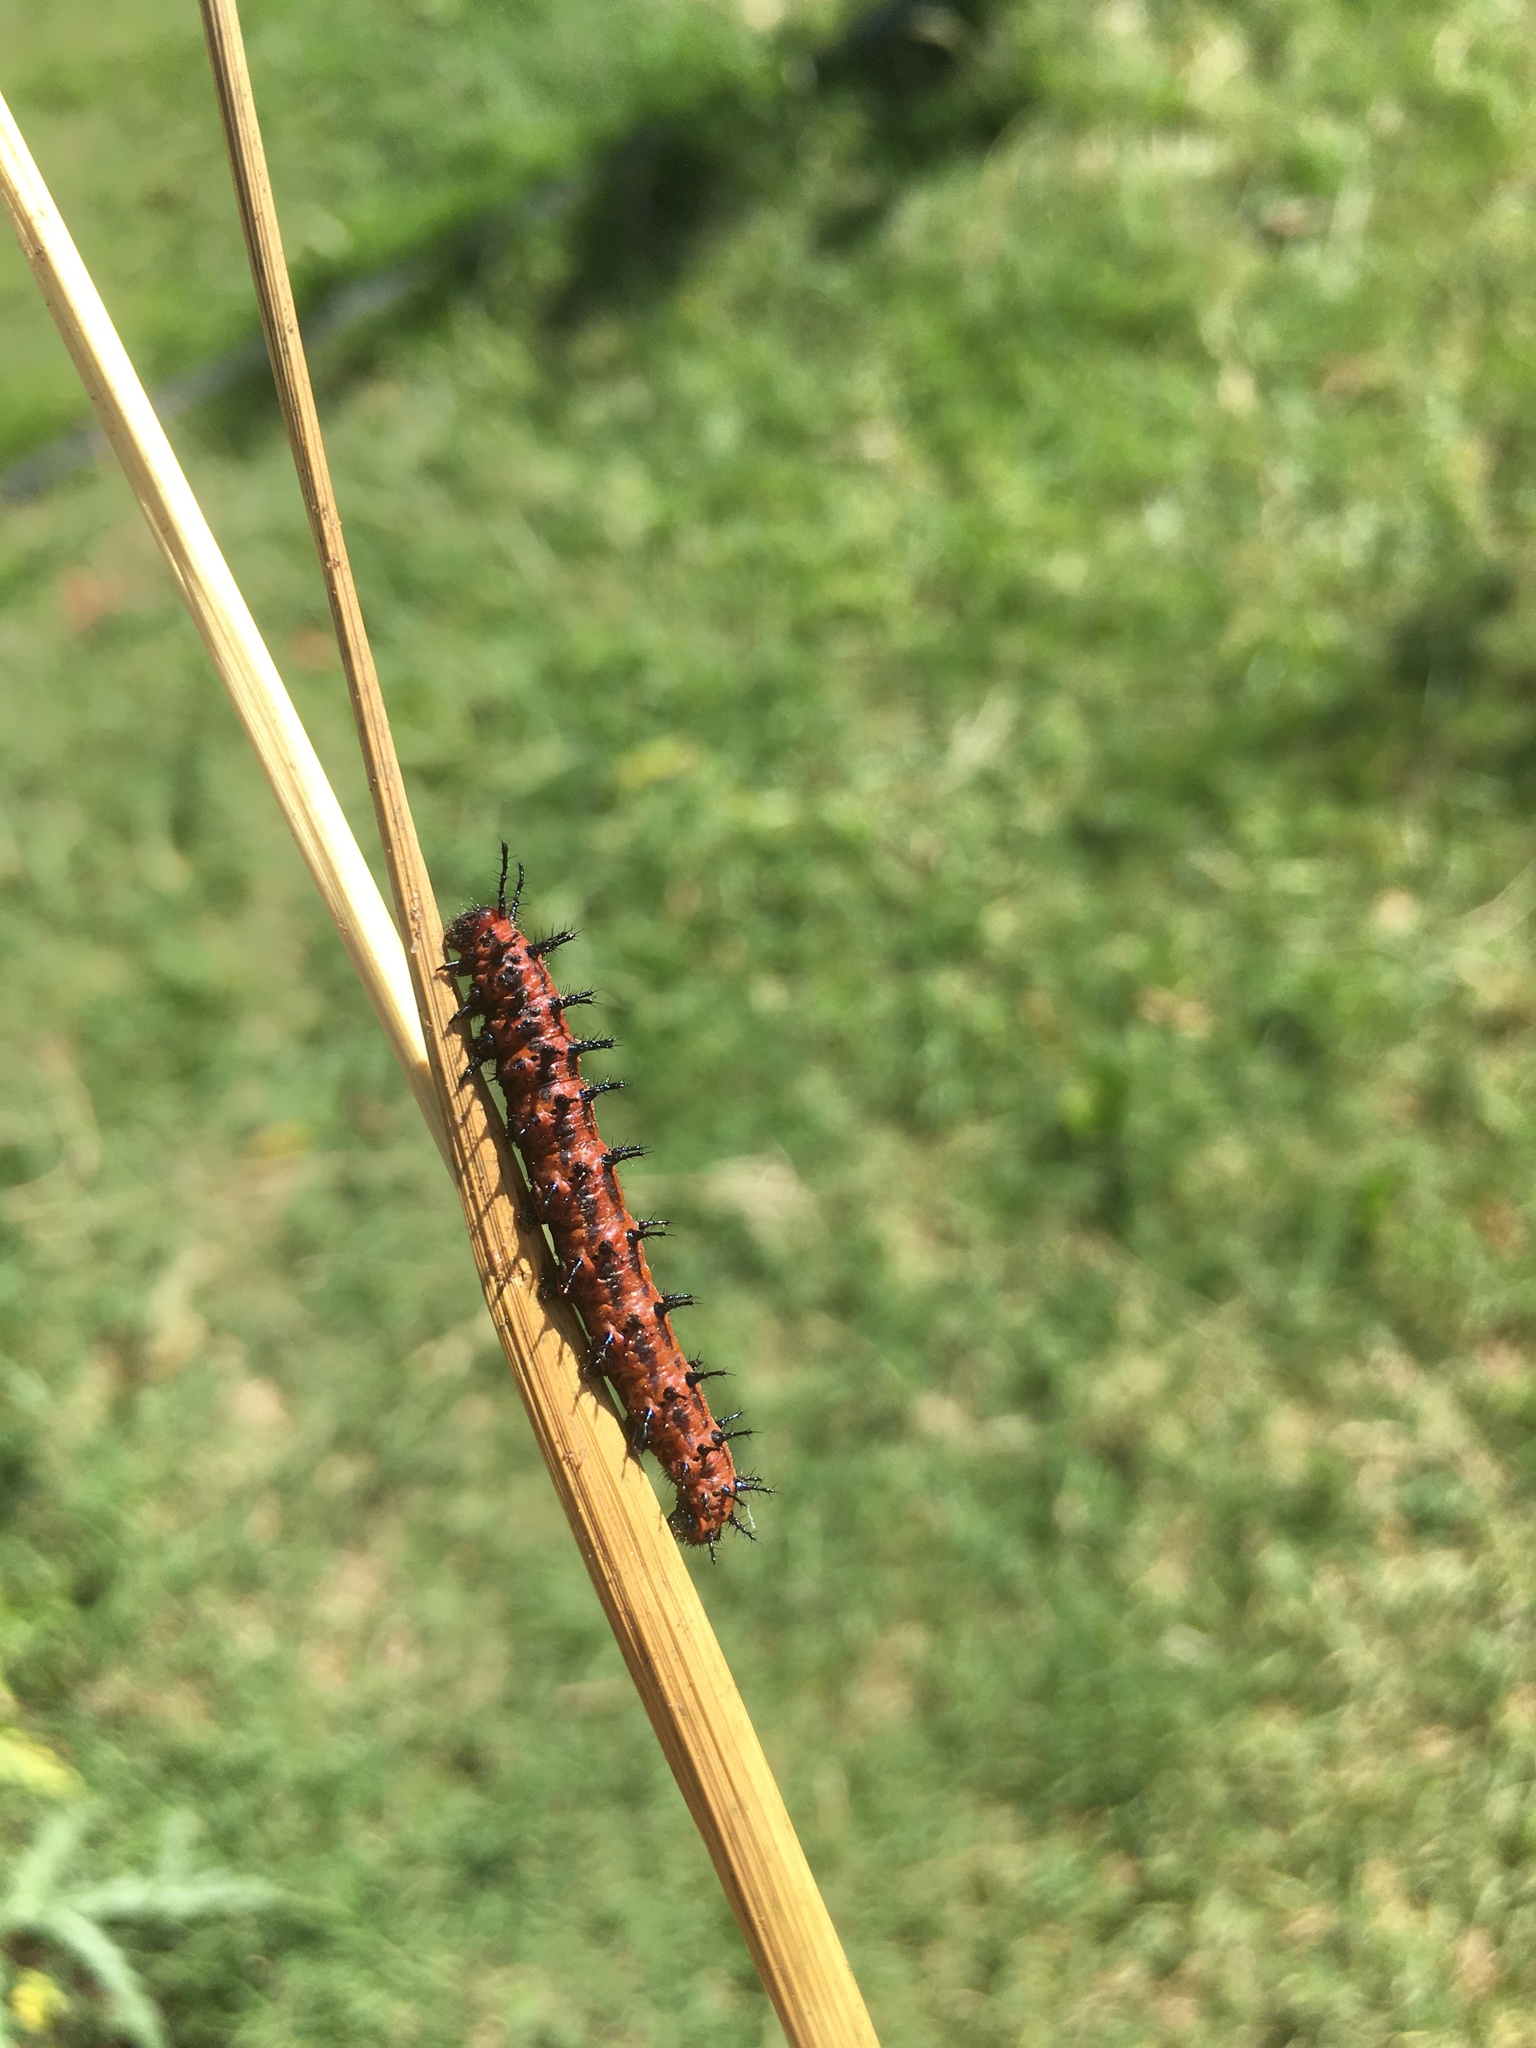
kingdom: Animalia
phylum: Arthropoda
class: Insecta
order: Lepidoptera
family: Nymphalidae
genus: Dione
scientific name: Dione vanillae
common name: Gulf fritillary
